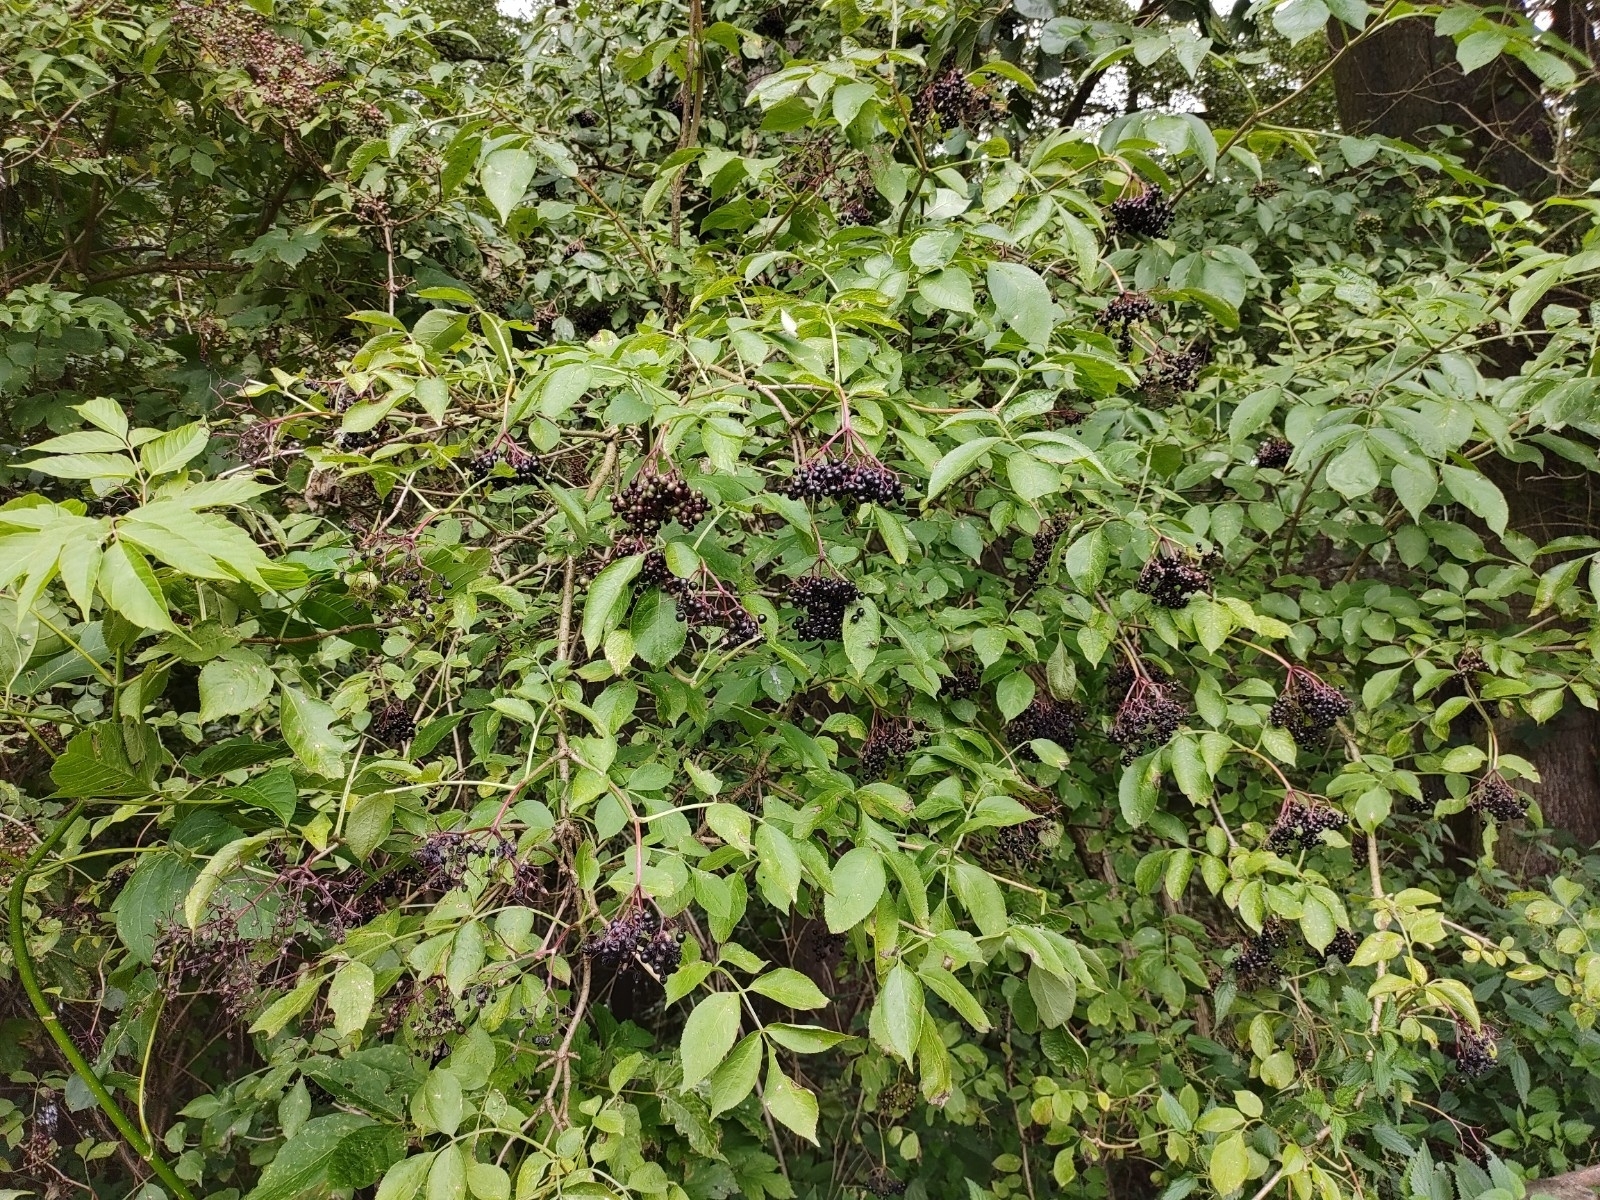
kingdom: Plantae
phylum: Tracheophyta
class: Magnoliopsida
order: Dipsacales
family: Viburnaceae
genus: Sambucus
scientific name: Sambucus nigra
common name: Elder
